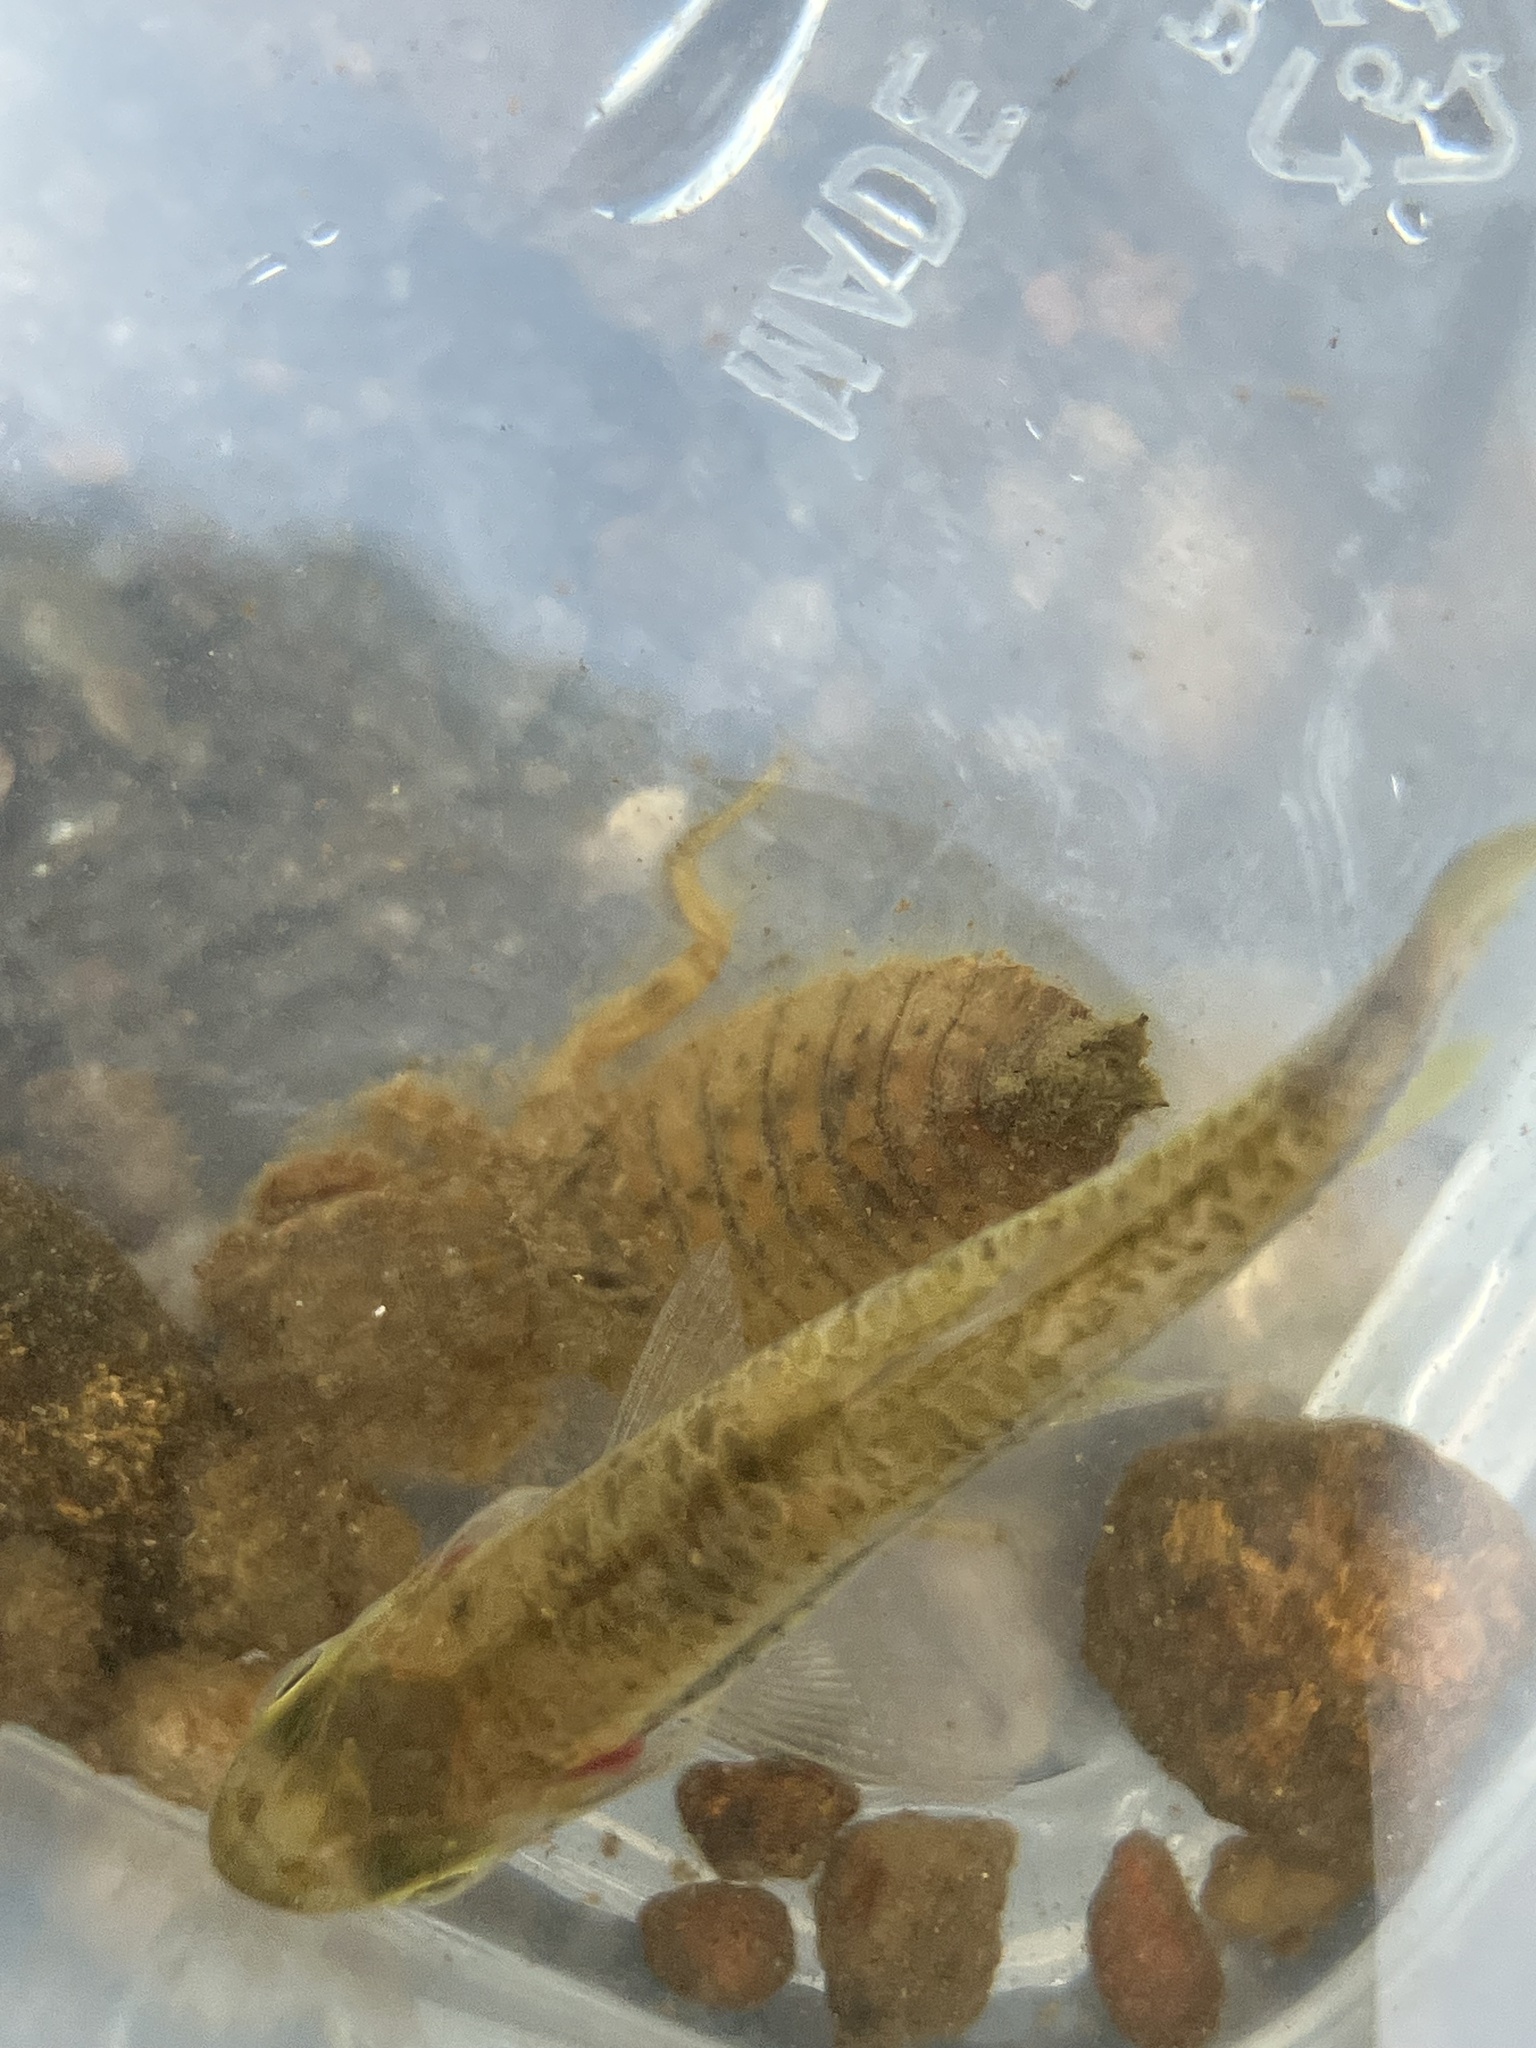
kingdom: Animalia
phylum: Arthropoda
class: Insecta
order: Odonata
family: Gomphidae
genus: Paragomphus
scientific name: Paragomphus lineatus
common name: Lined hooktail
